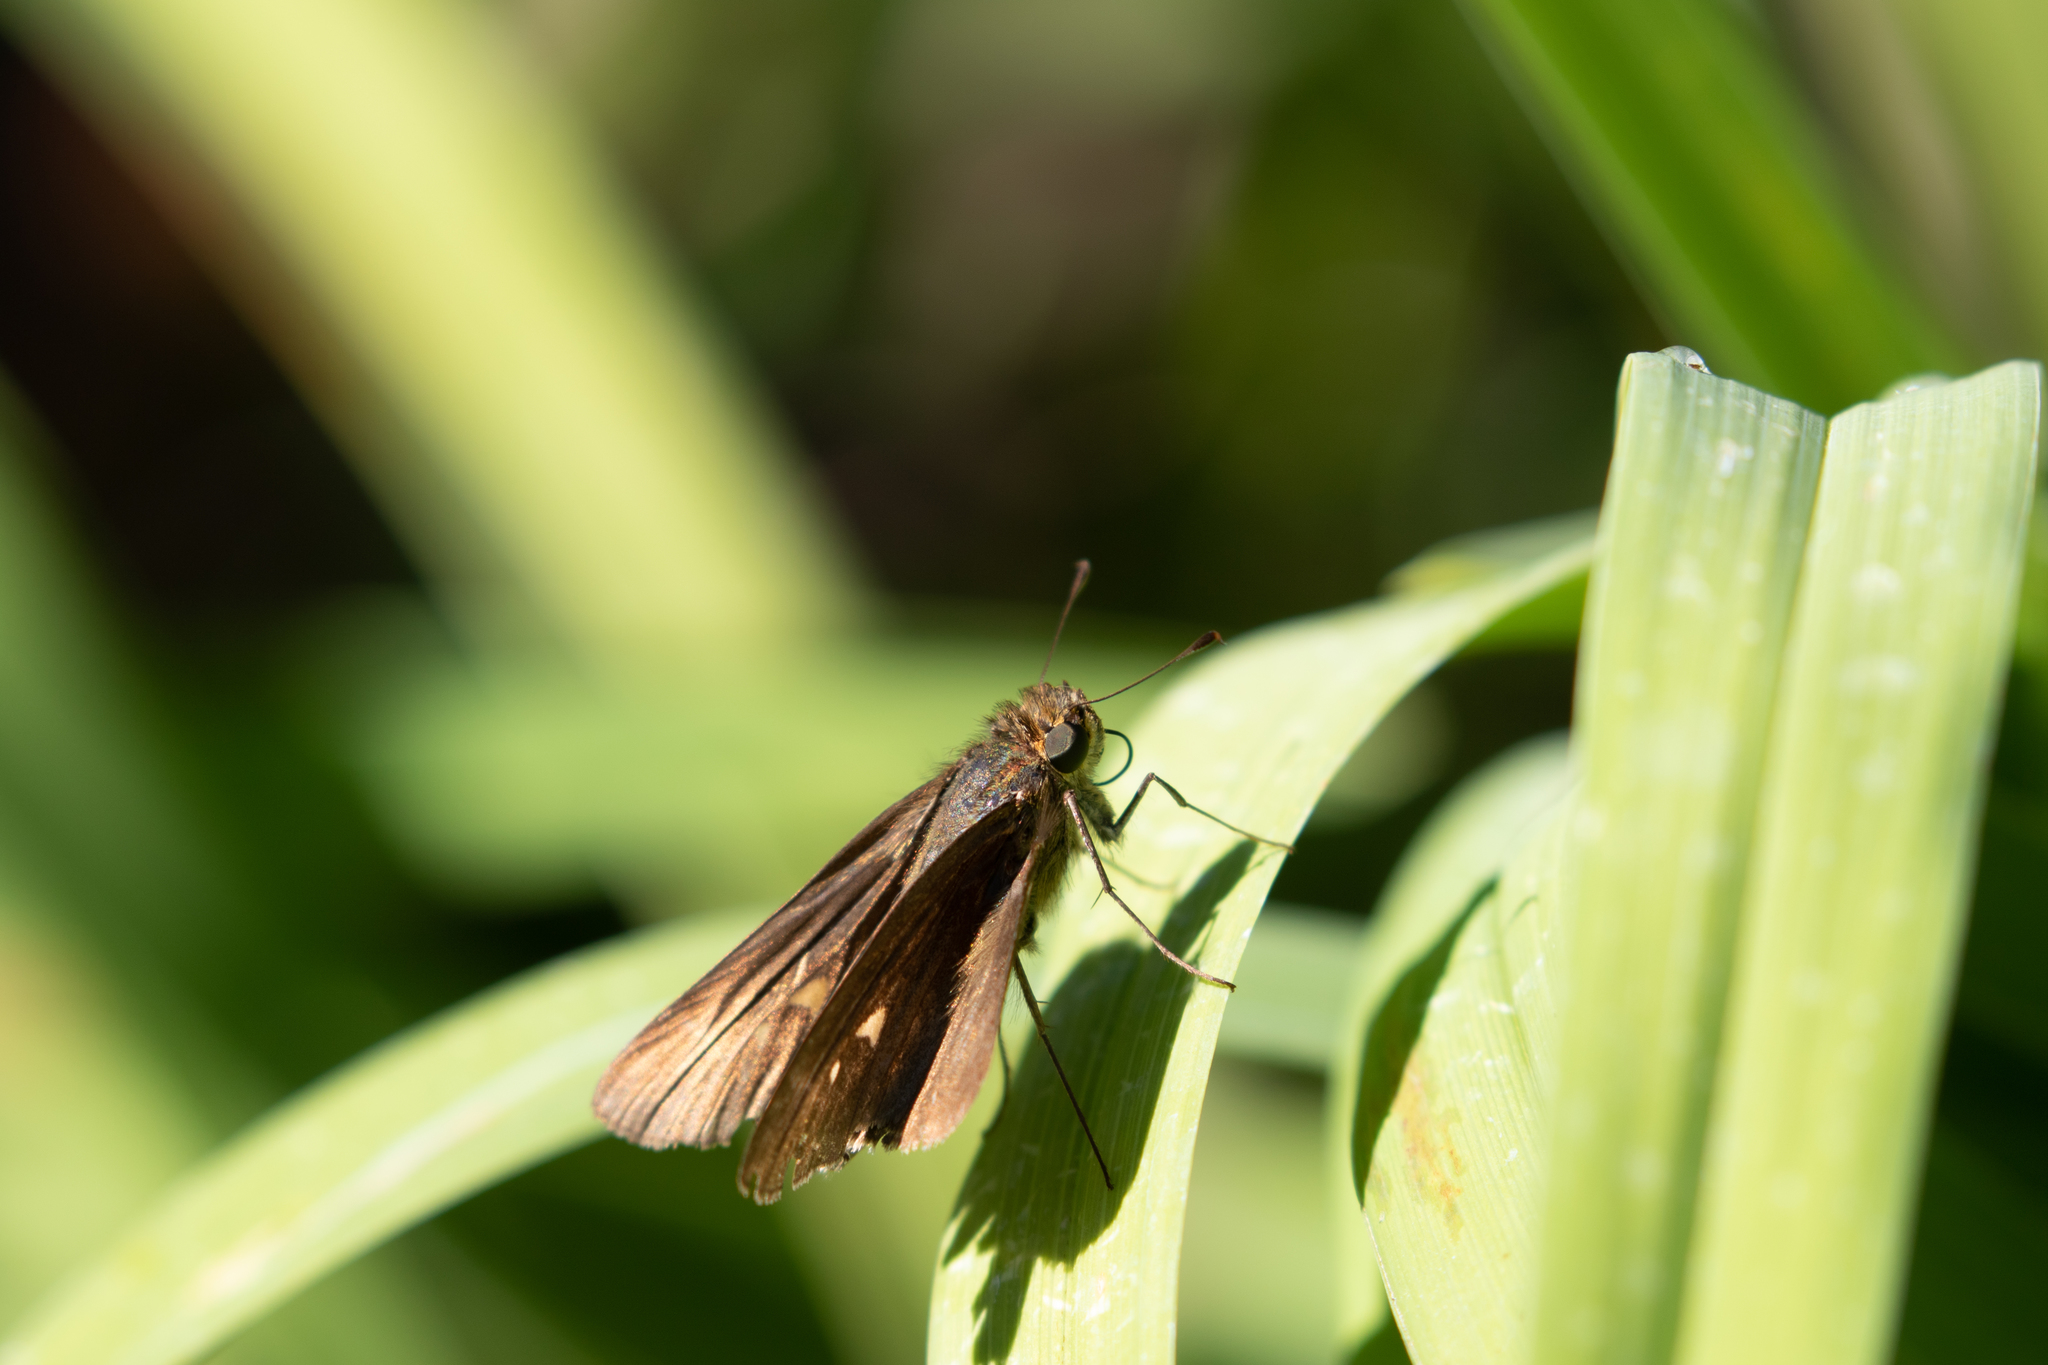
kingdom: Animalia
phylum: Arthropoda
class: Insecta
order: Lepidoptera
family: Hesperiidae
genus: Panoquina
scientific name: Panoquina ocola
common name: Ocola skipper
